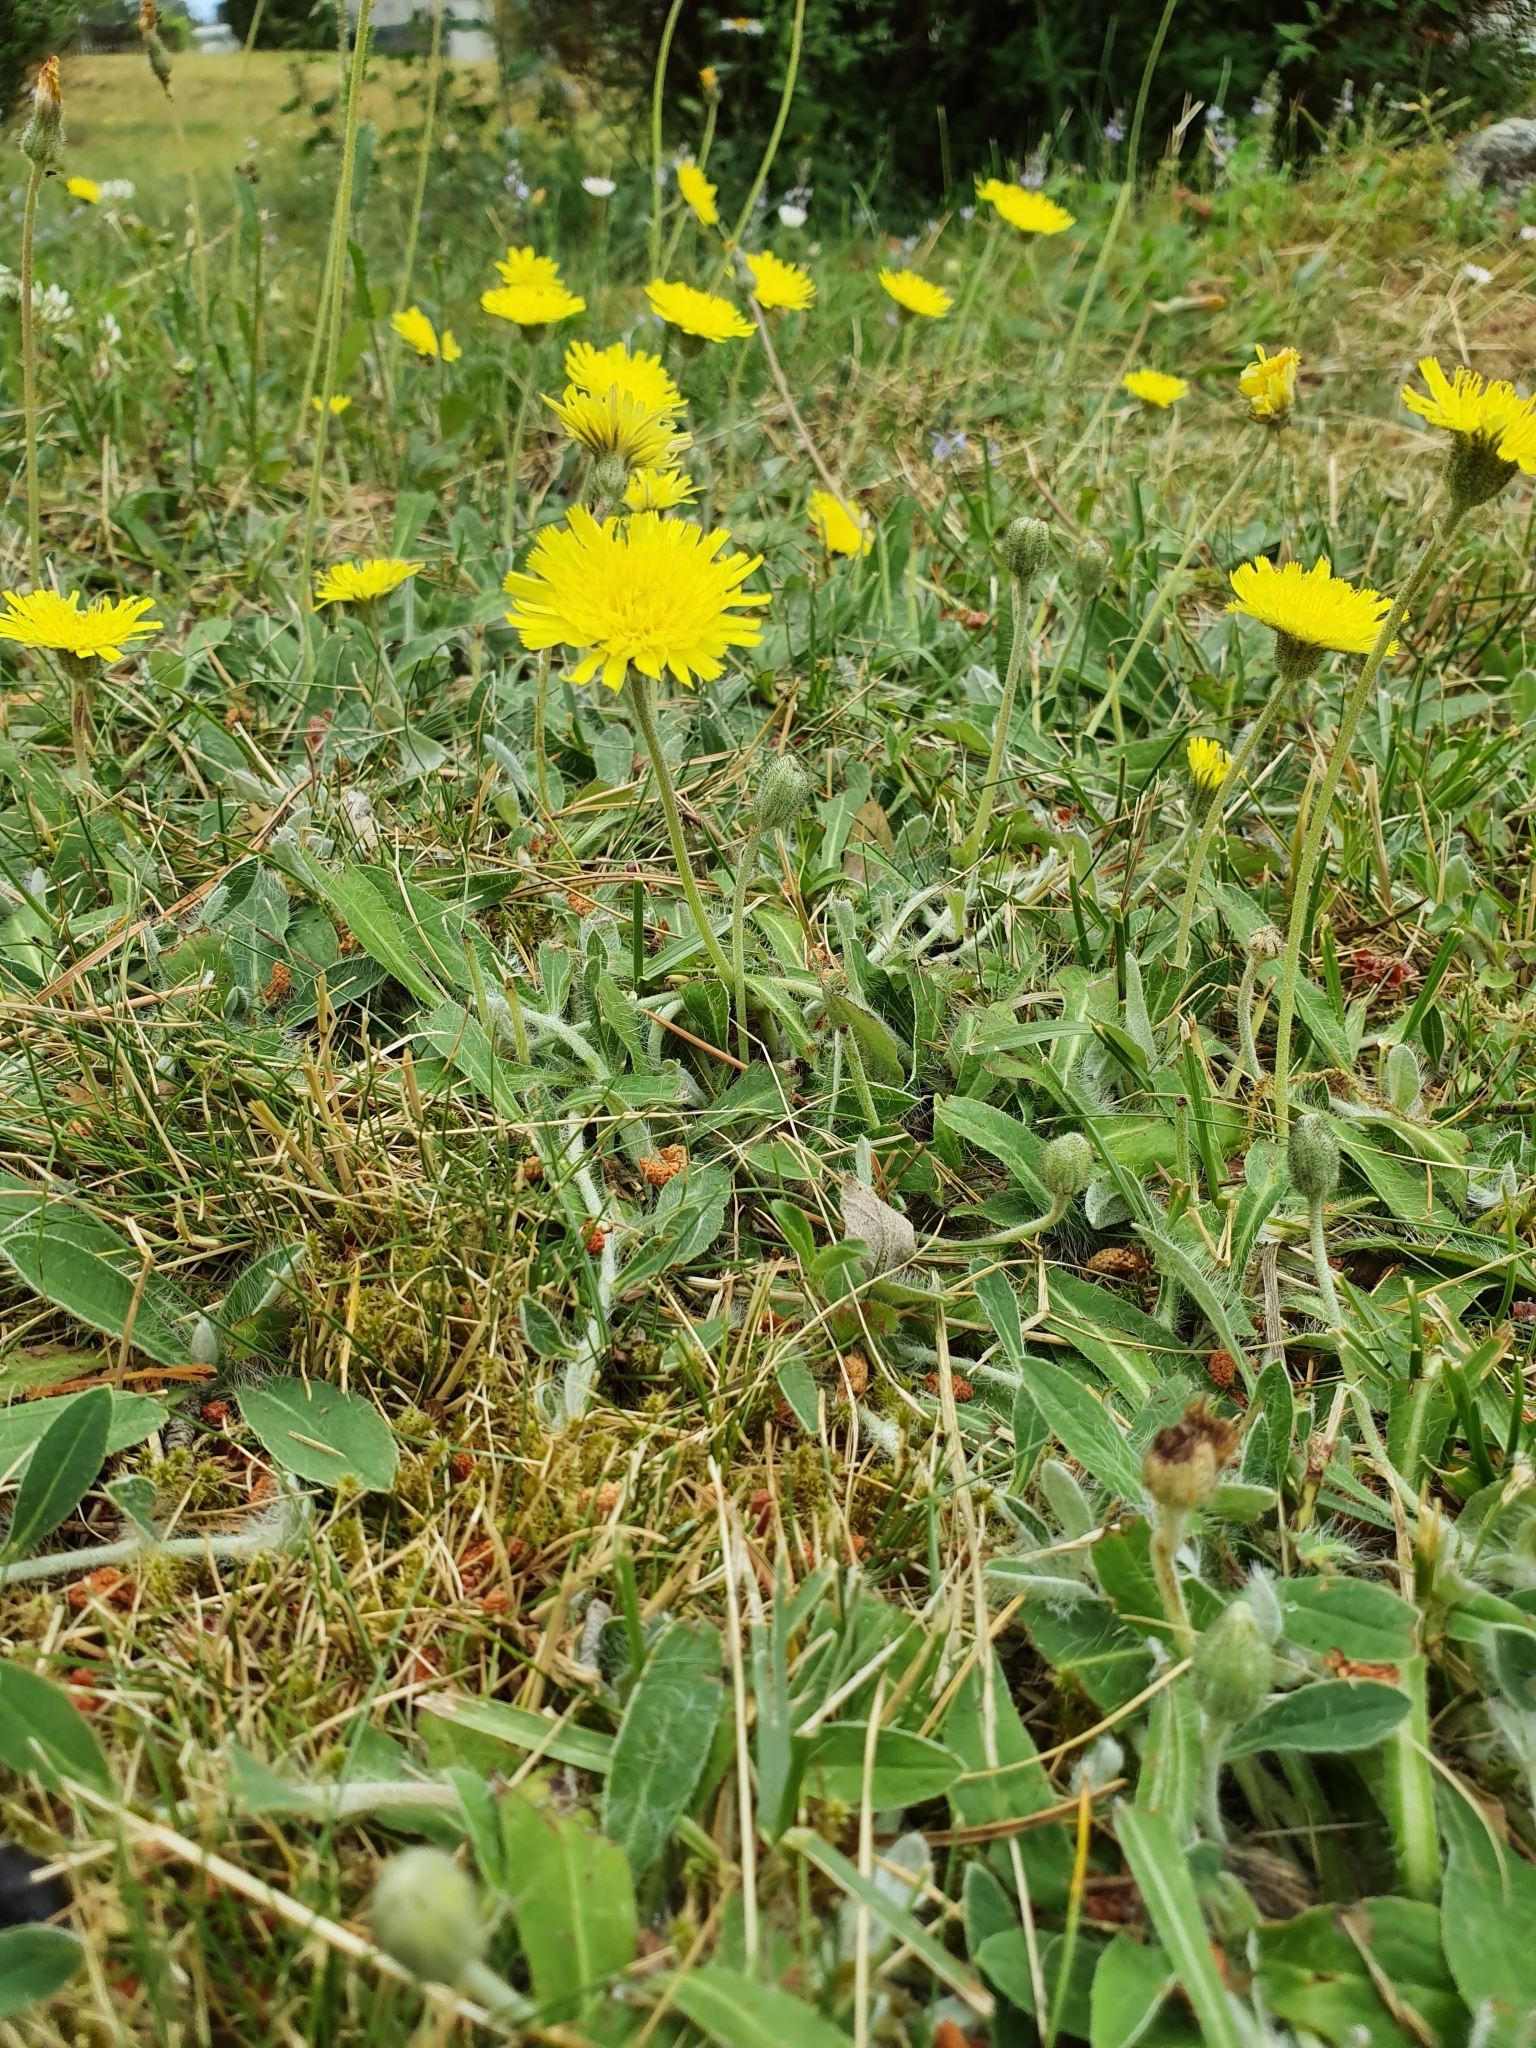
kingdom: Plantae
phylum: Tracheophyta
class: Magnoliopsida
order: Asterales
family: Asteraceae
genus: Pilosella
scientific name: Pilosella officinarum
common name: Mouse-ear hawkweed
